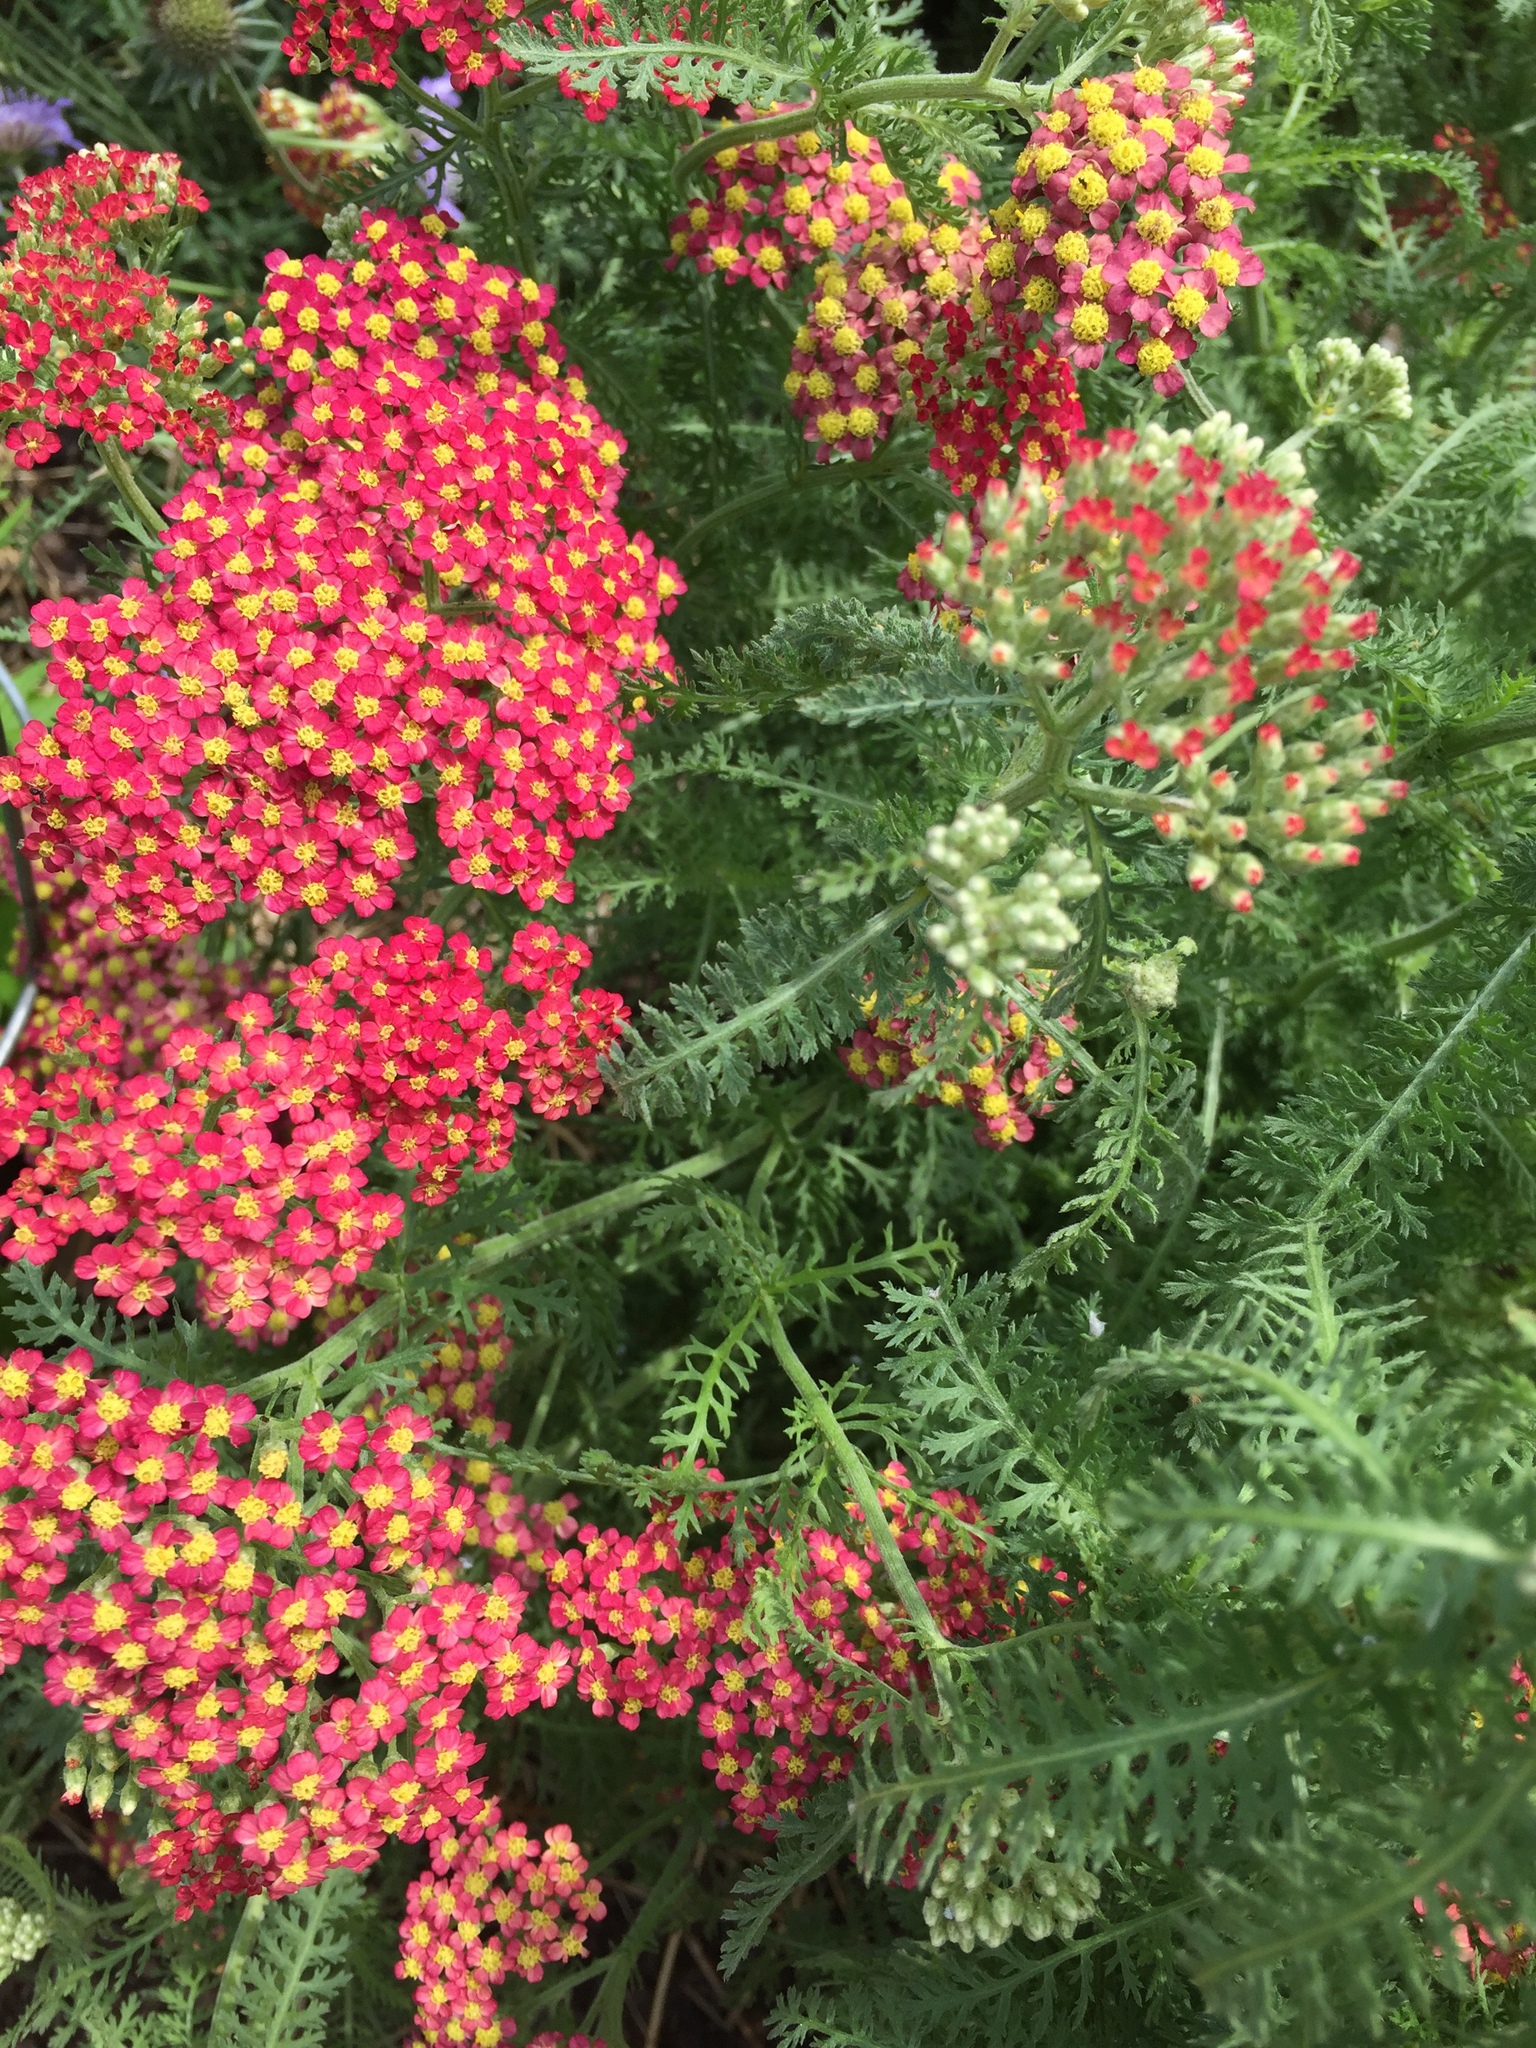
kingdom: Plantae
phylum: Tracheophyta
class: Magnoliopsida
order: Asterales
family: Asteraceae
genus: Achillea
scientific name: Achillea millefolium
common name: Yarrow
